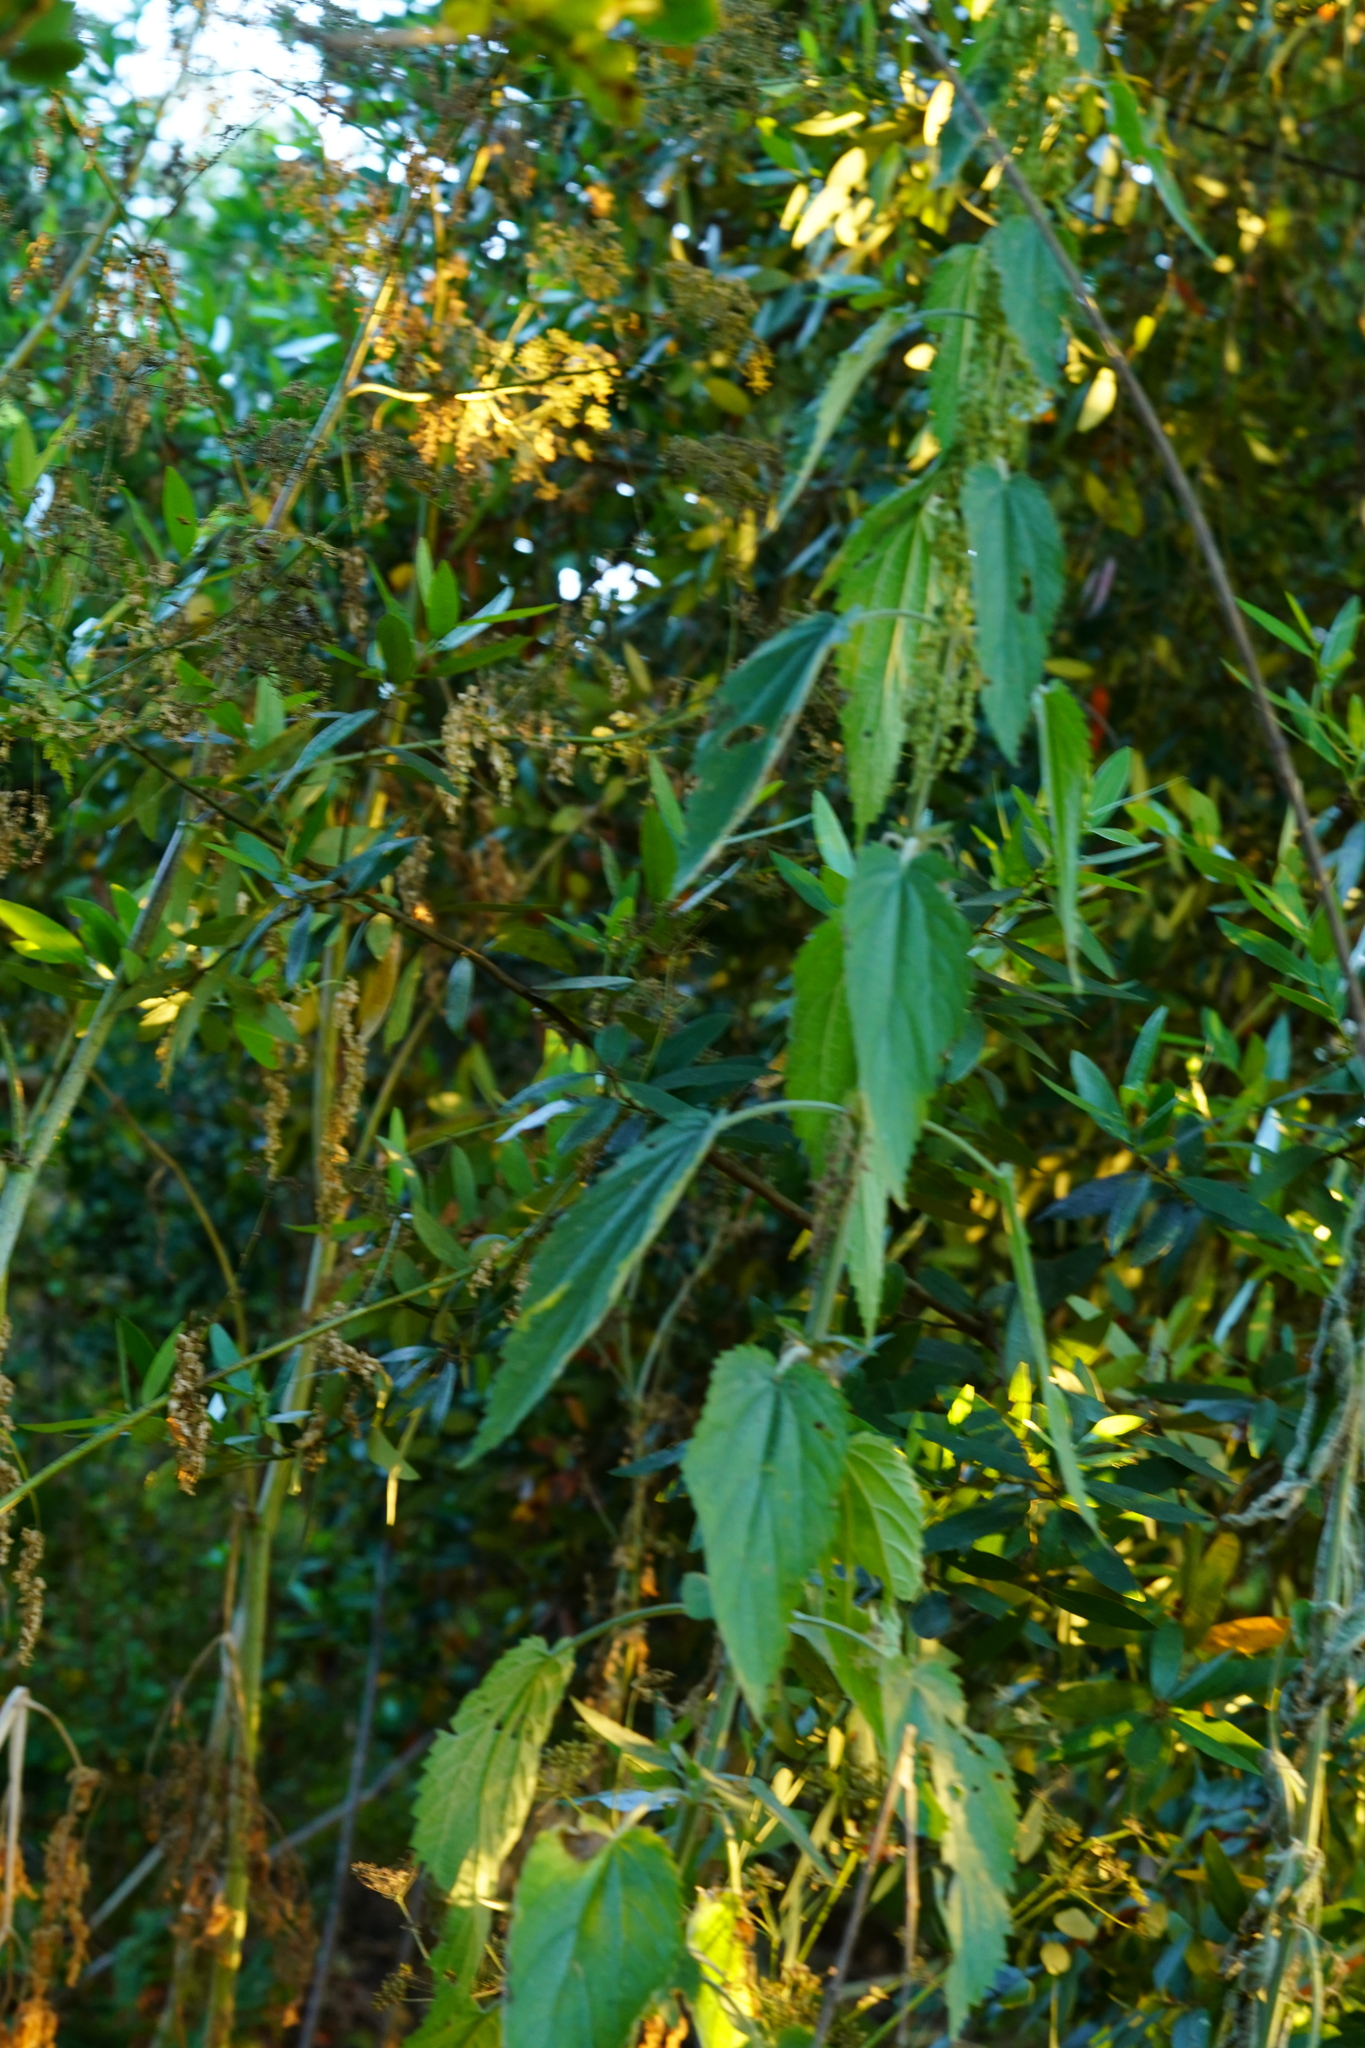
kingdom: Plantae
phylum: Tracheophyta
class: Magnoliopsida
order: Rosales
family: Urticaceae
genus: Urtica
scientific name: Urtica dioica
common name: Common nettle
